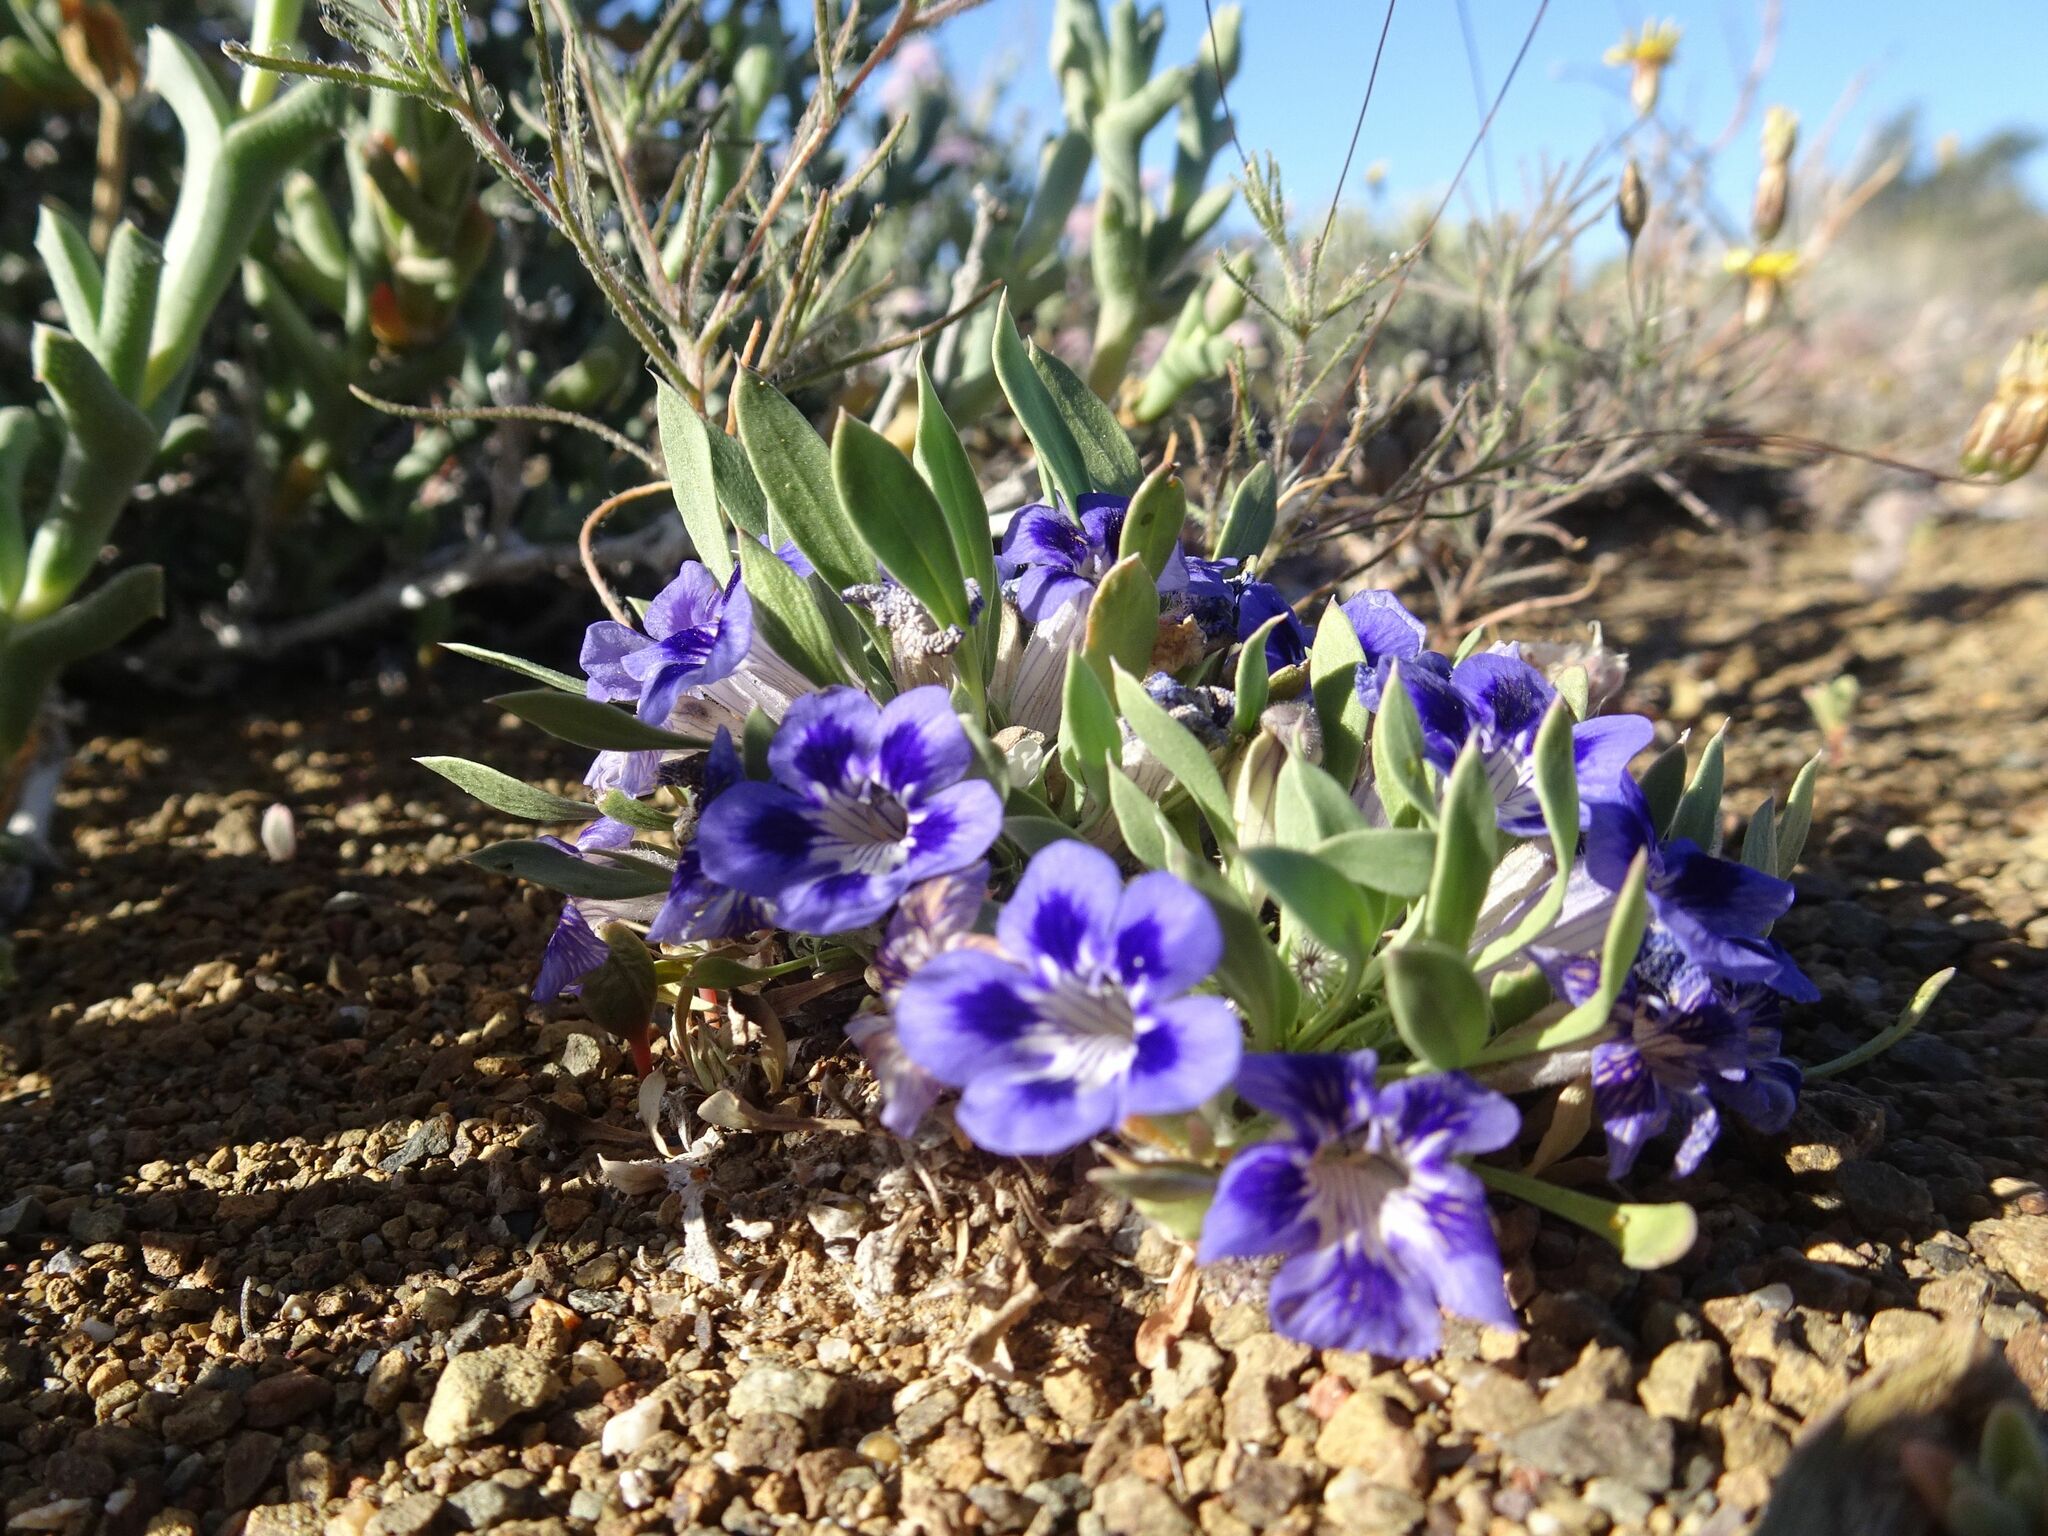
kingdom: Plantae
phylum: Tracheophyta
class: Magnoliopsida
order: Lamiales
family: Scrophulariaceae
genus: Aptosimum
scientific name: Aptosimum indivisum
